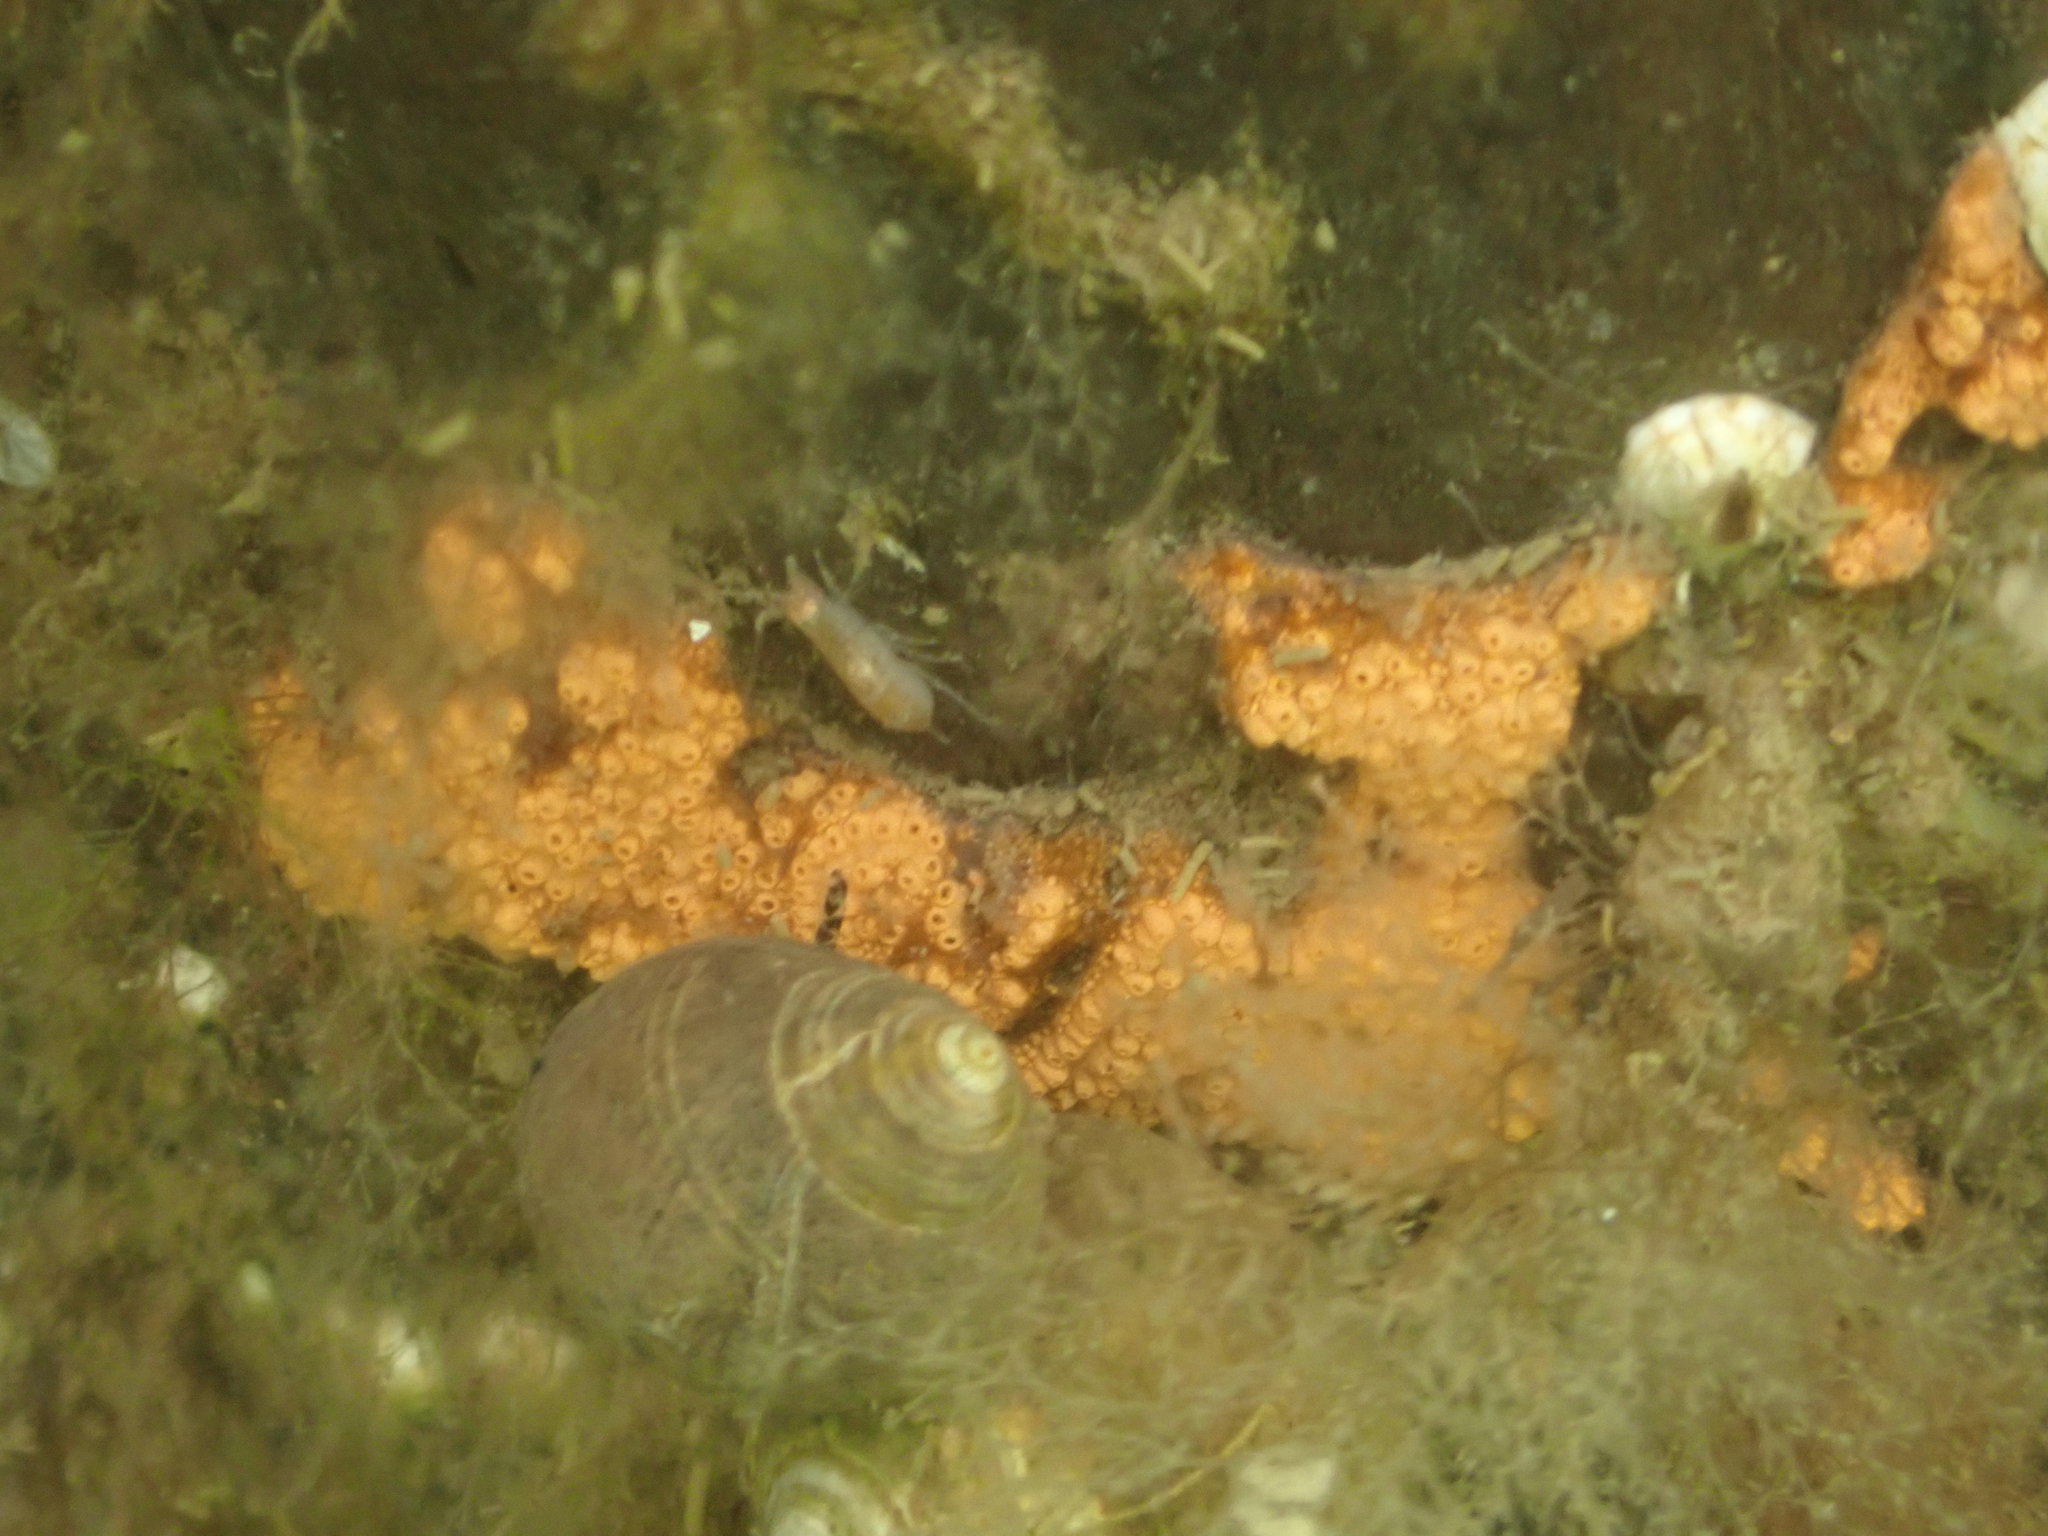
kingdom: Animalia
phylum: Chordata
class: Ascidiacea
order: Stolidobranchia
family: Styelidae
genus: Botrylloides
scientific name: Botrylloides violaceus
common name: Colonial sea squirt
